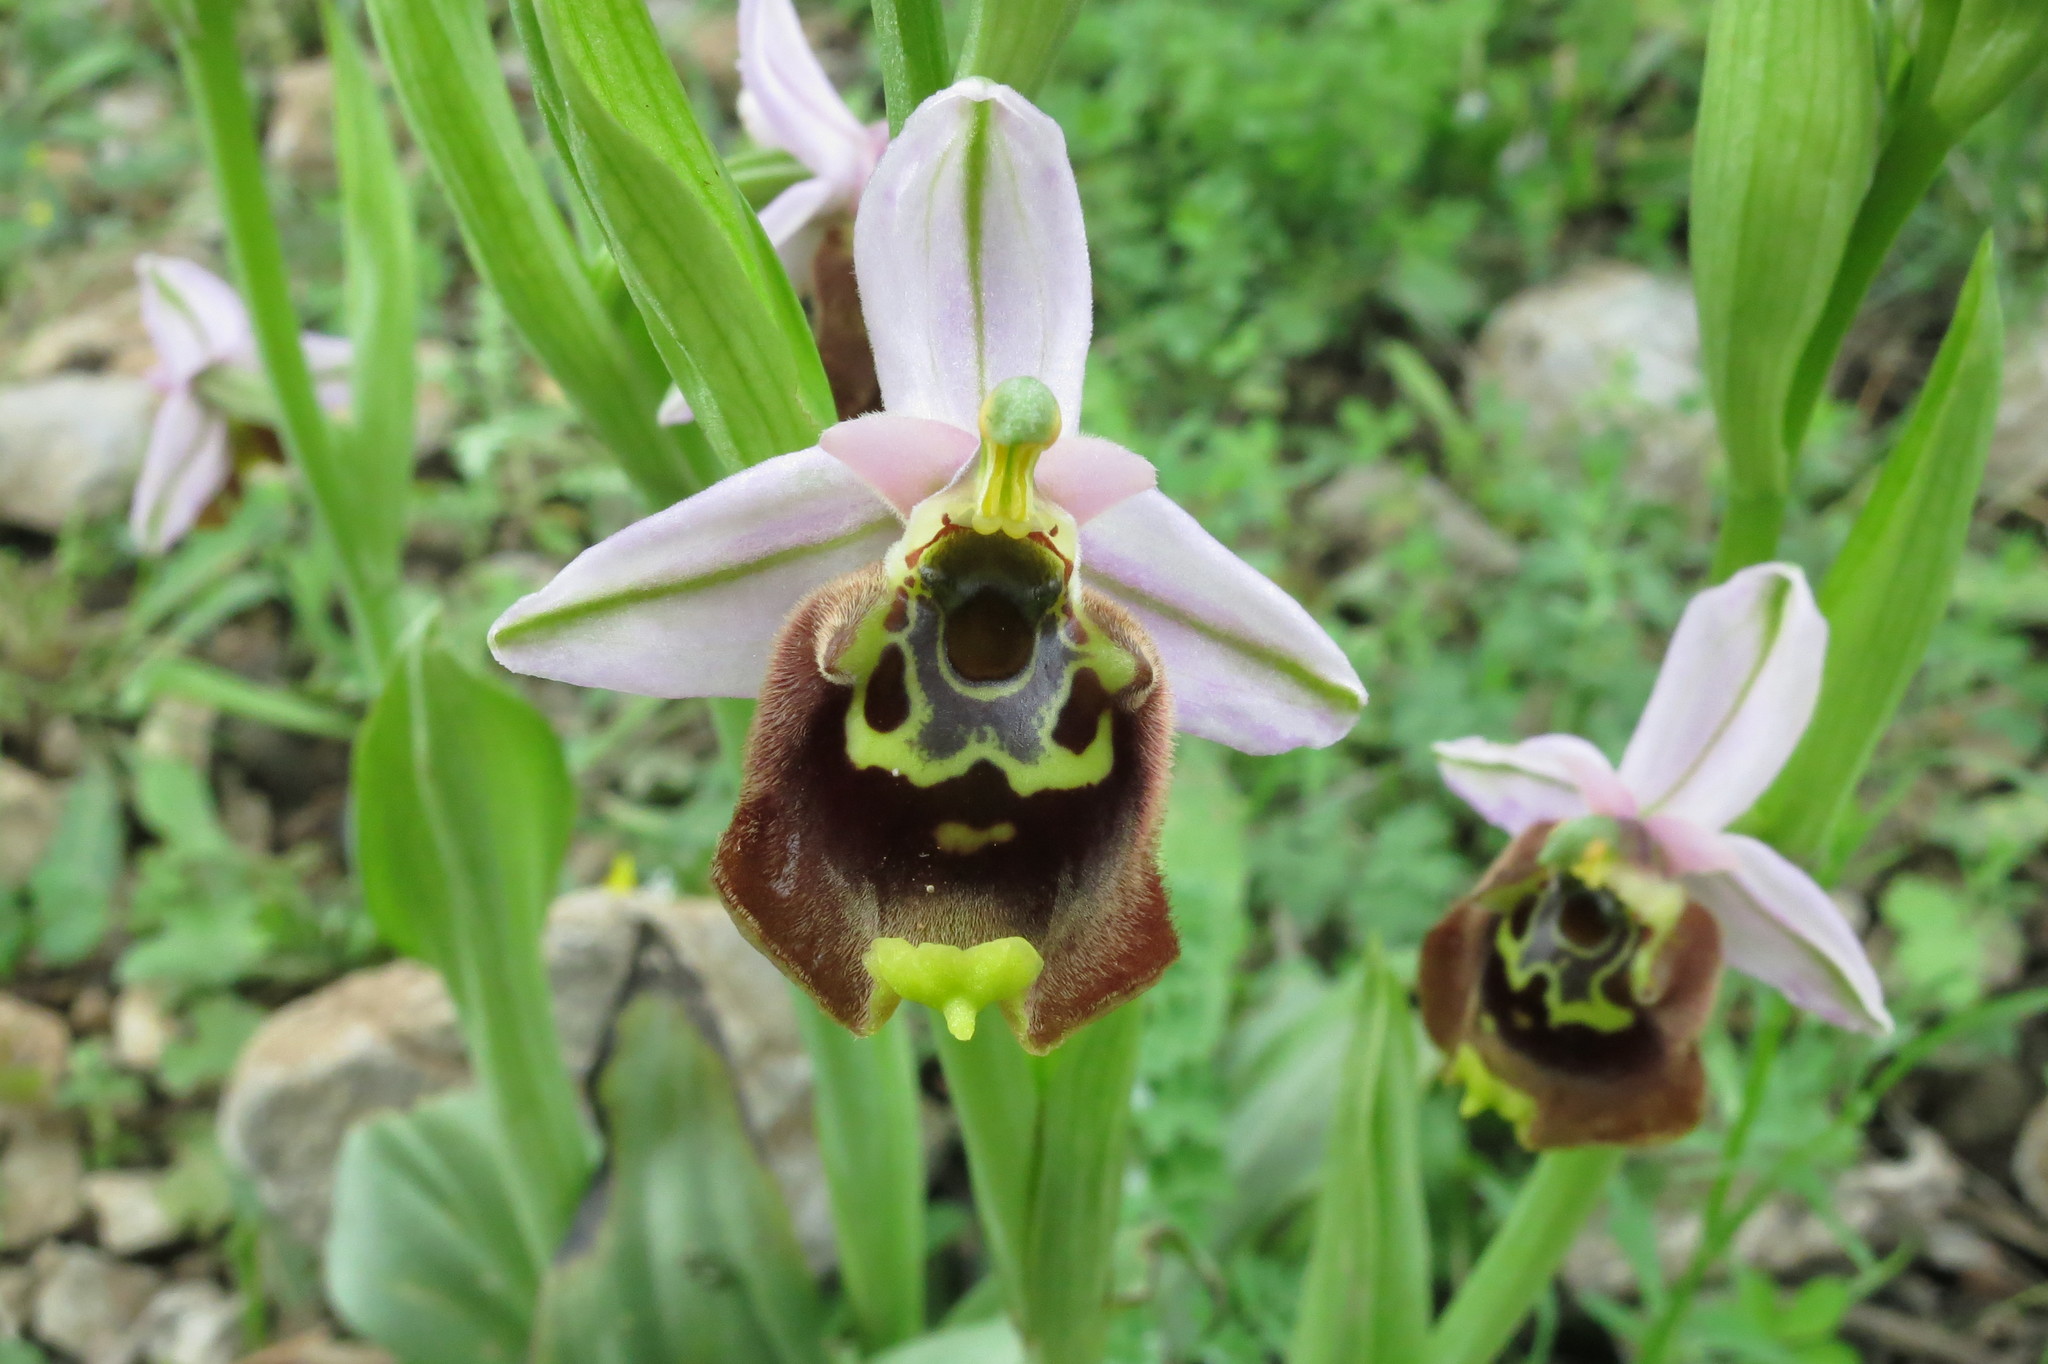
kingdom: Plantae
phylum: Tracheophyta
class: Liliopsida
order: Asparagales
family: Orchidaceae
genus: Ophrys
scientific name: Ophrys holosericea
